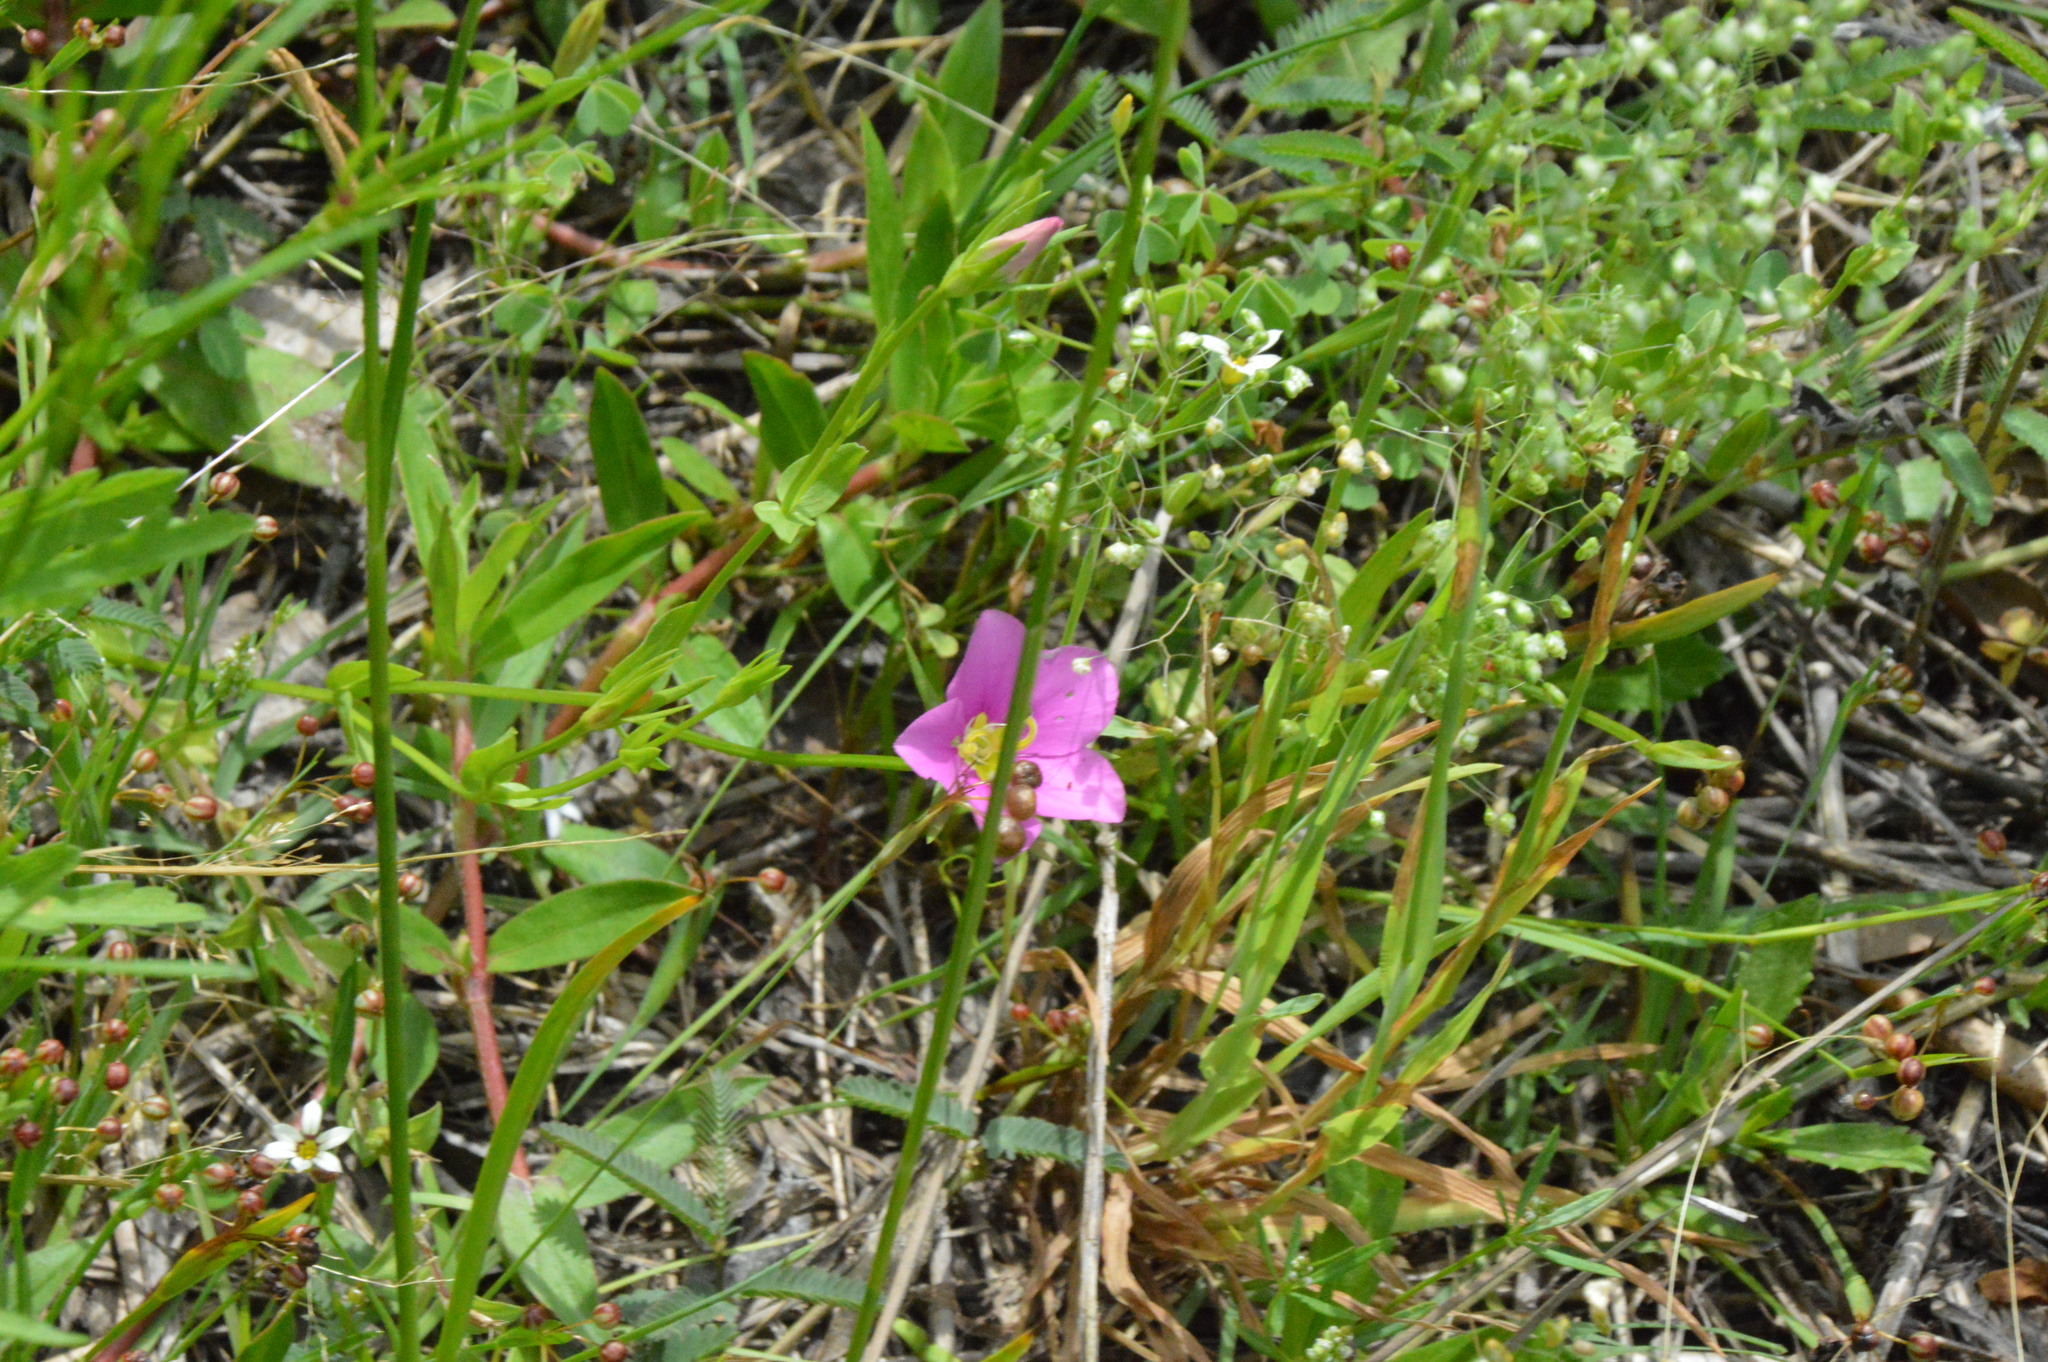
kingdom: Plantae
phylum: Tracheophyta
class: Magnoliopsida
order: Gentianales
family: Gentianaceae
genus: Sabatia
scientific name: Sabatia campestris
